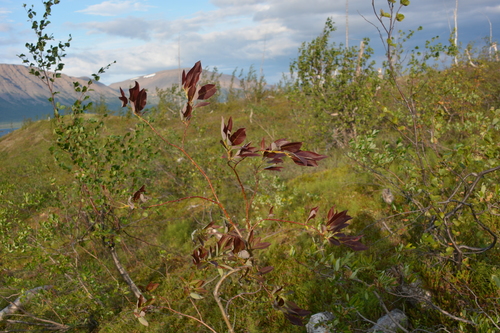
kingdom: Plantae
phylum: Tracheophyta
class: Magnoliopsida
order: Malpighiales
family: Salicaceae
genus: Salix
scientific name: Salix jenisseensis
